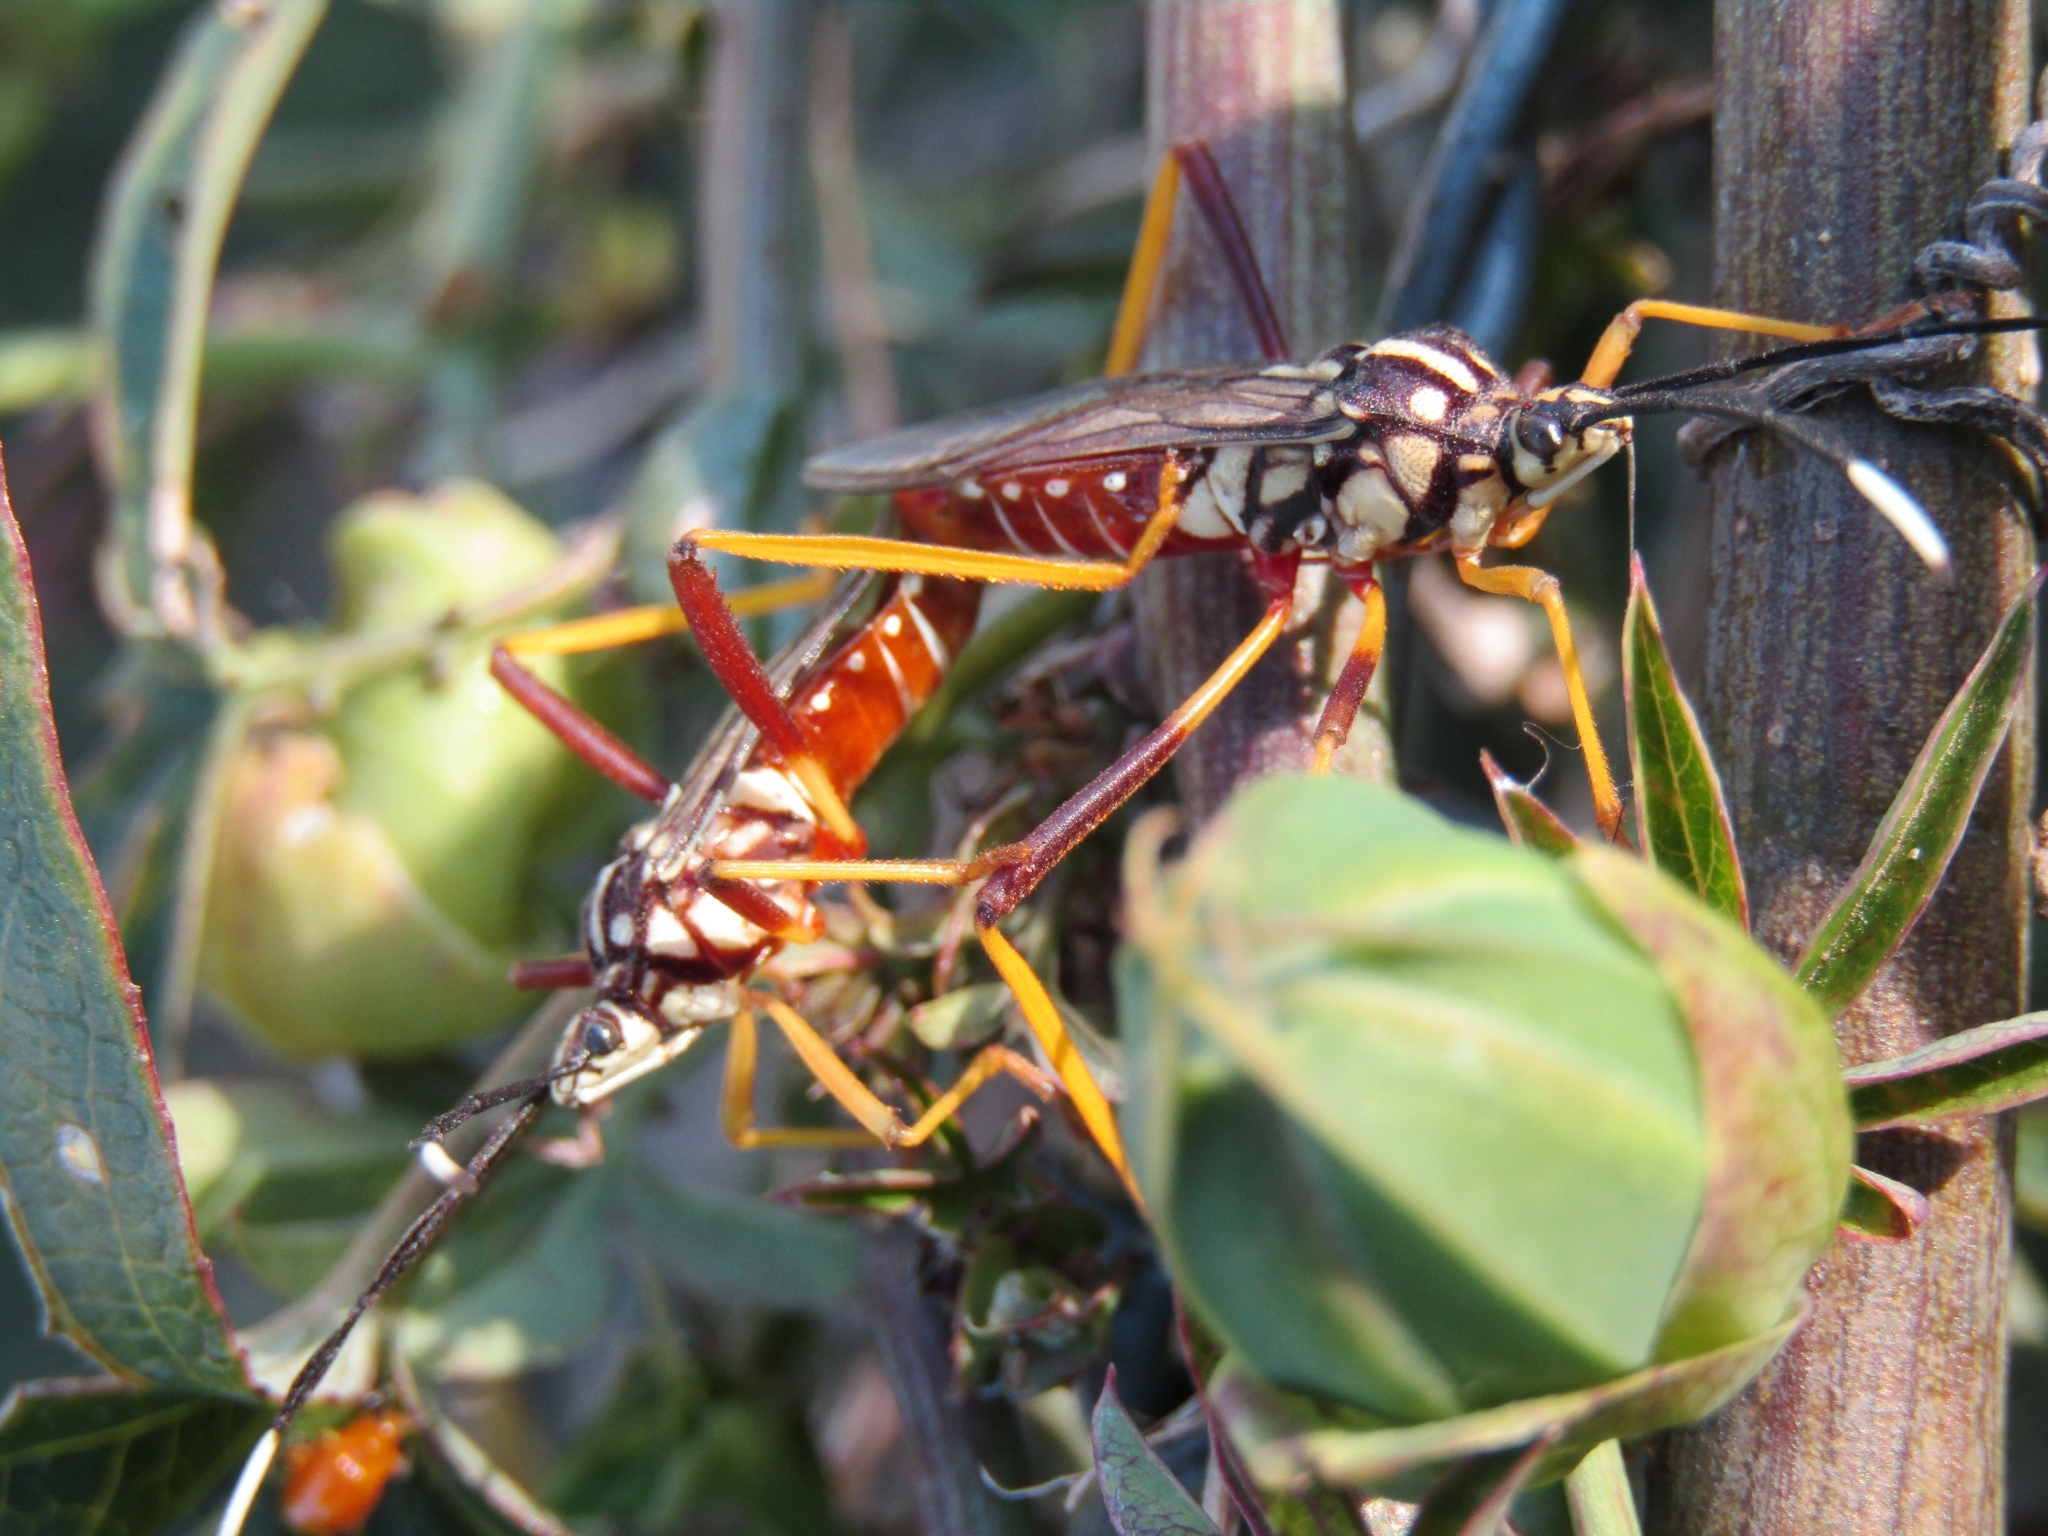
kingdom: Animalia
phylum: Arthropoda
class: Insecta
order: Hemiptera
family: Coreidae
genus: Holhymenia
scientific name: Holhymenia histrio
